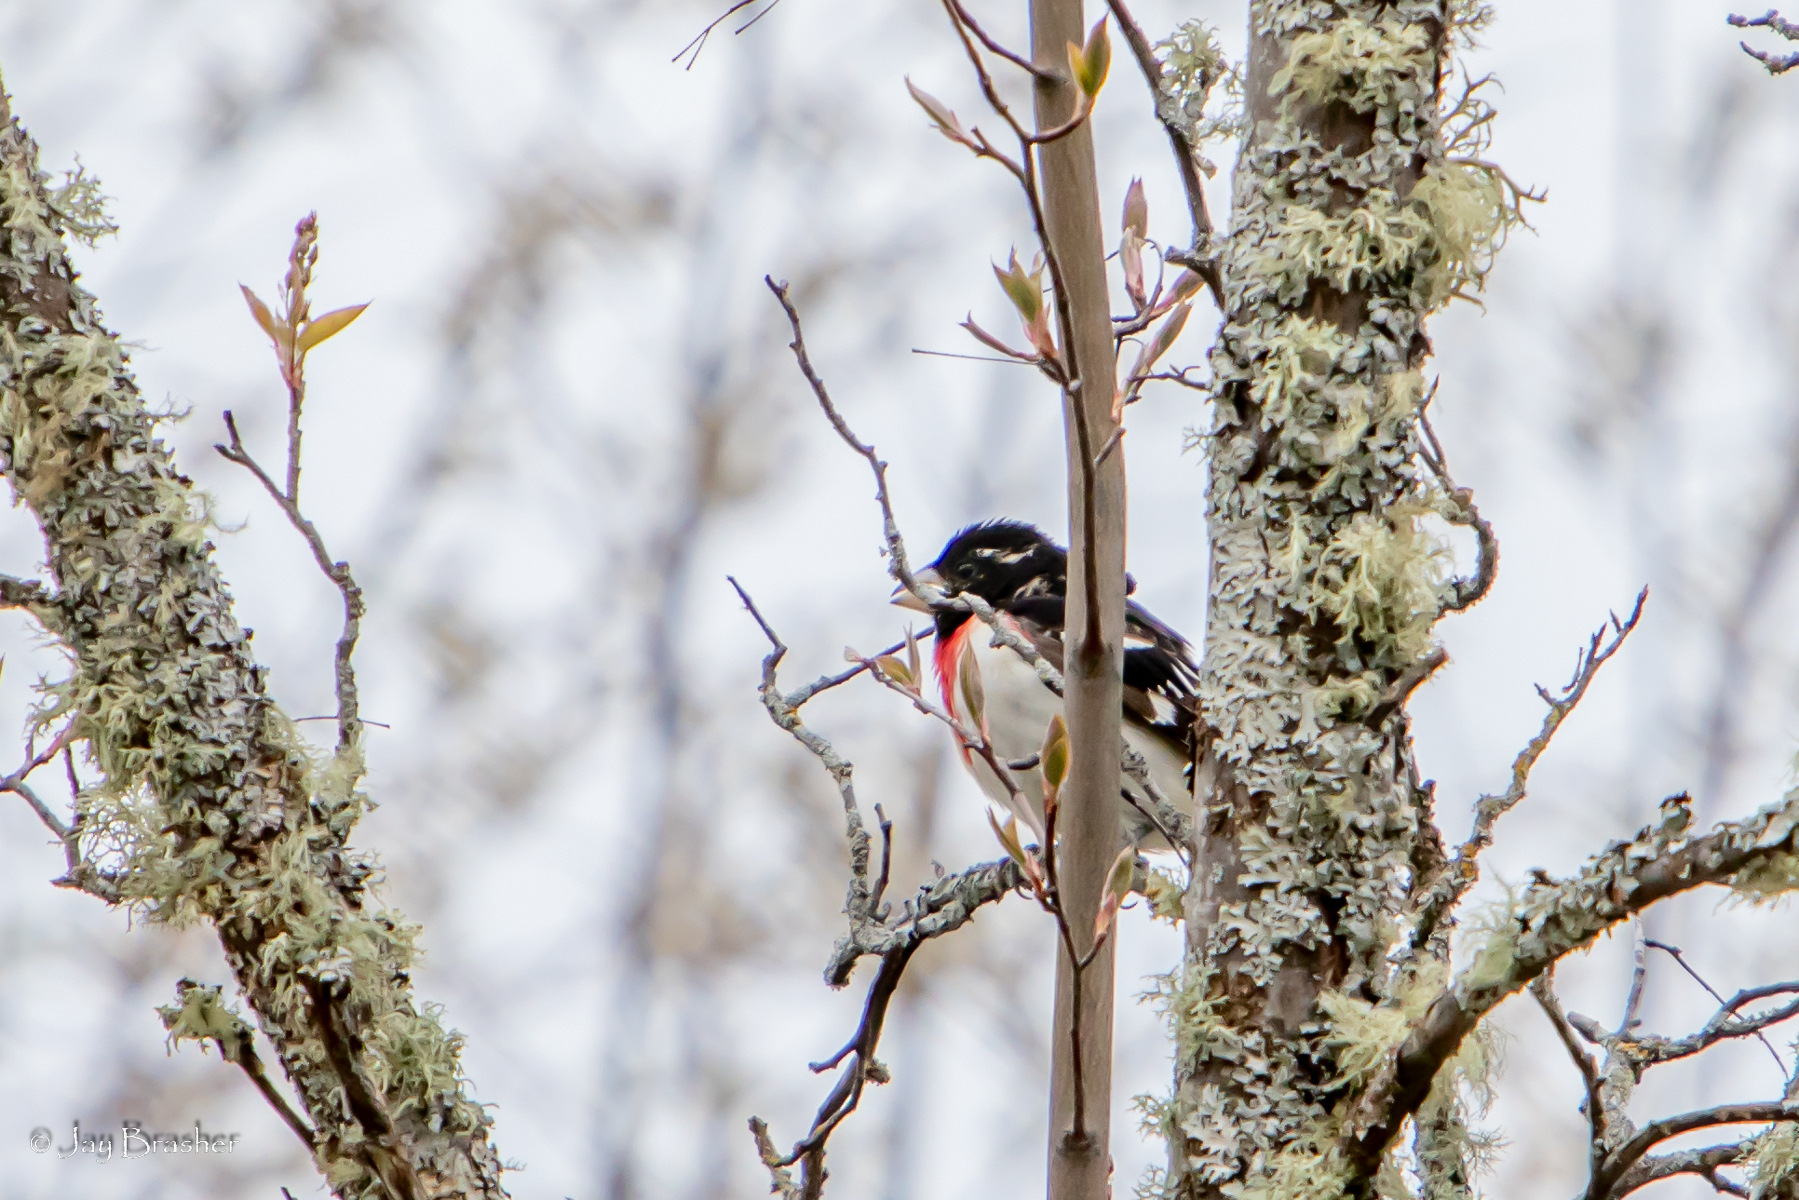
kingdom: Animalia
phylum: Chordata
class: Aves
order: Passeriformes
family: Cardinalidae
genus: Pheucticus
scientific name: Pheucticus ludovicianus
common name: Rose-breasted grosbeak
